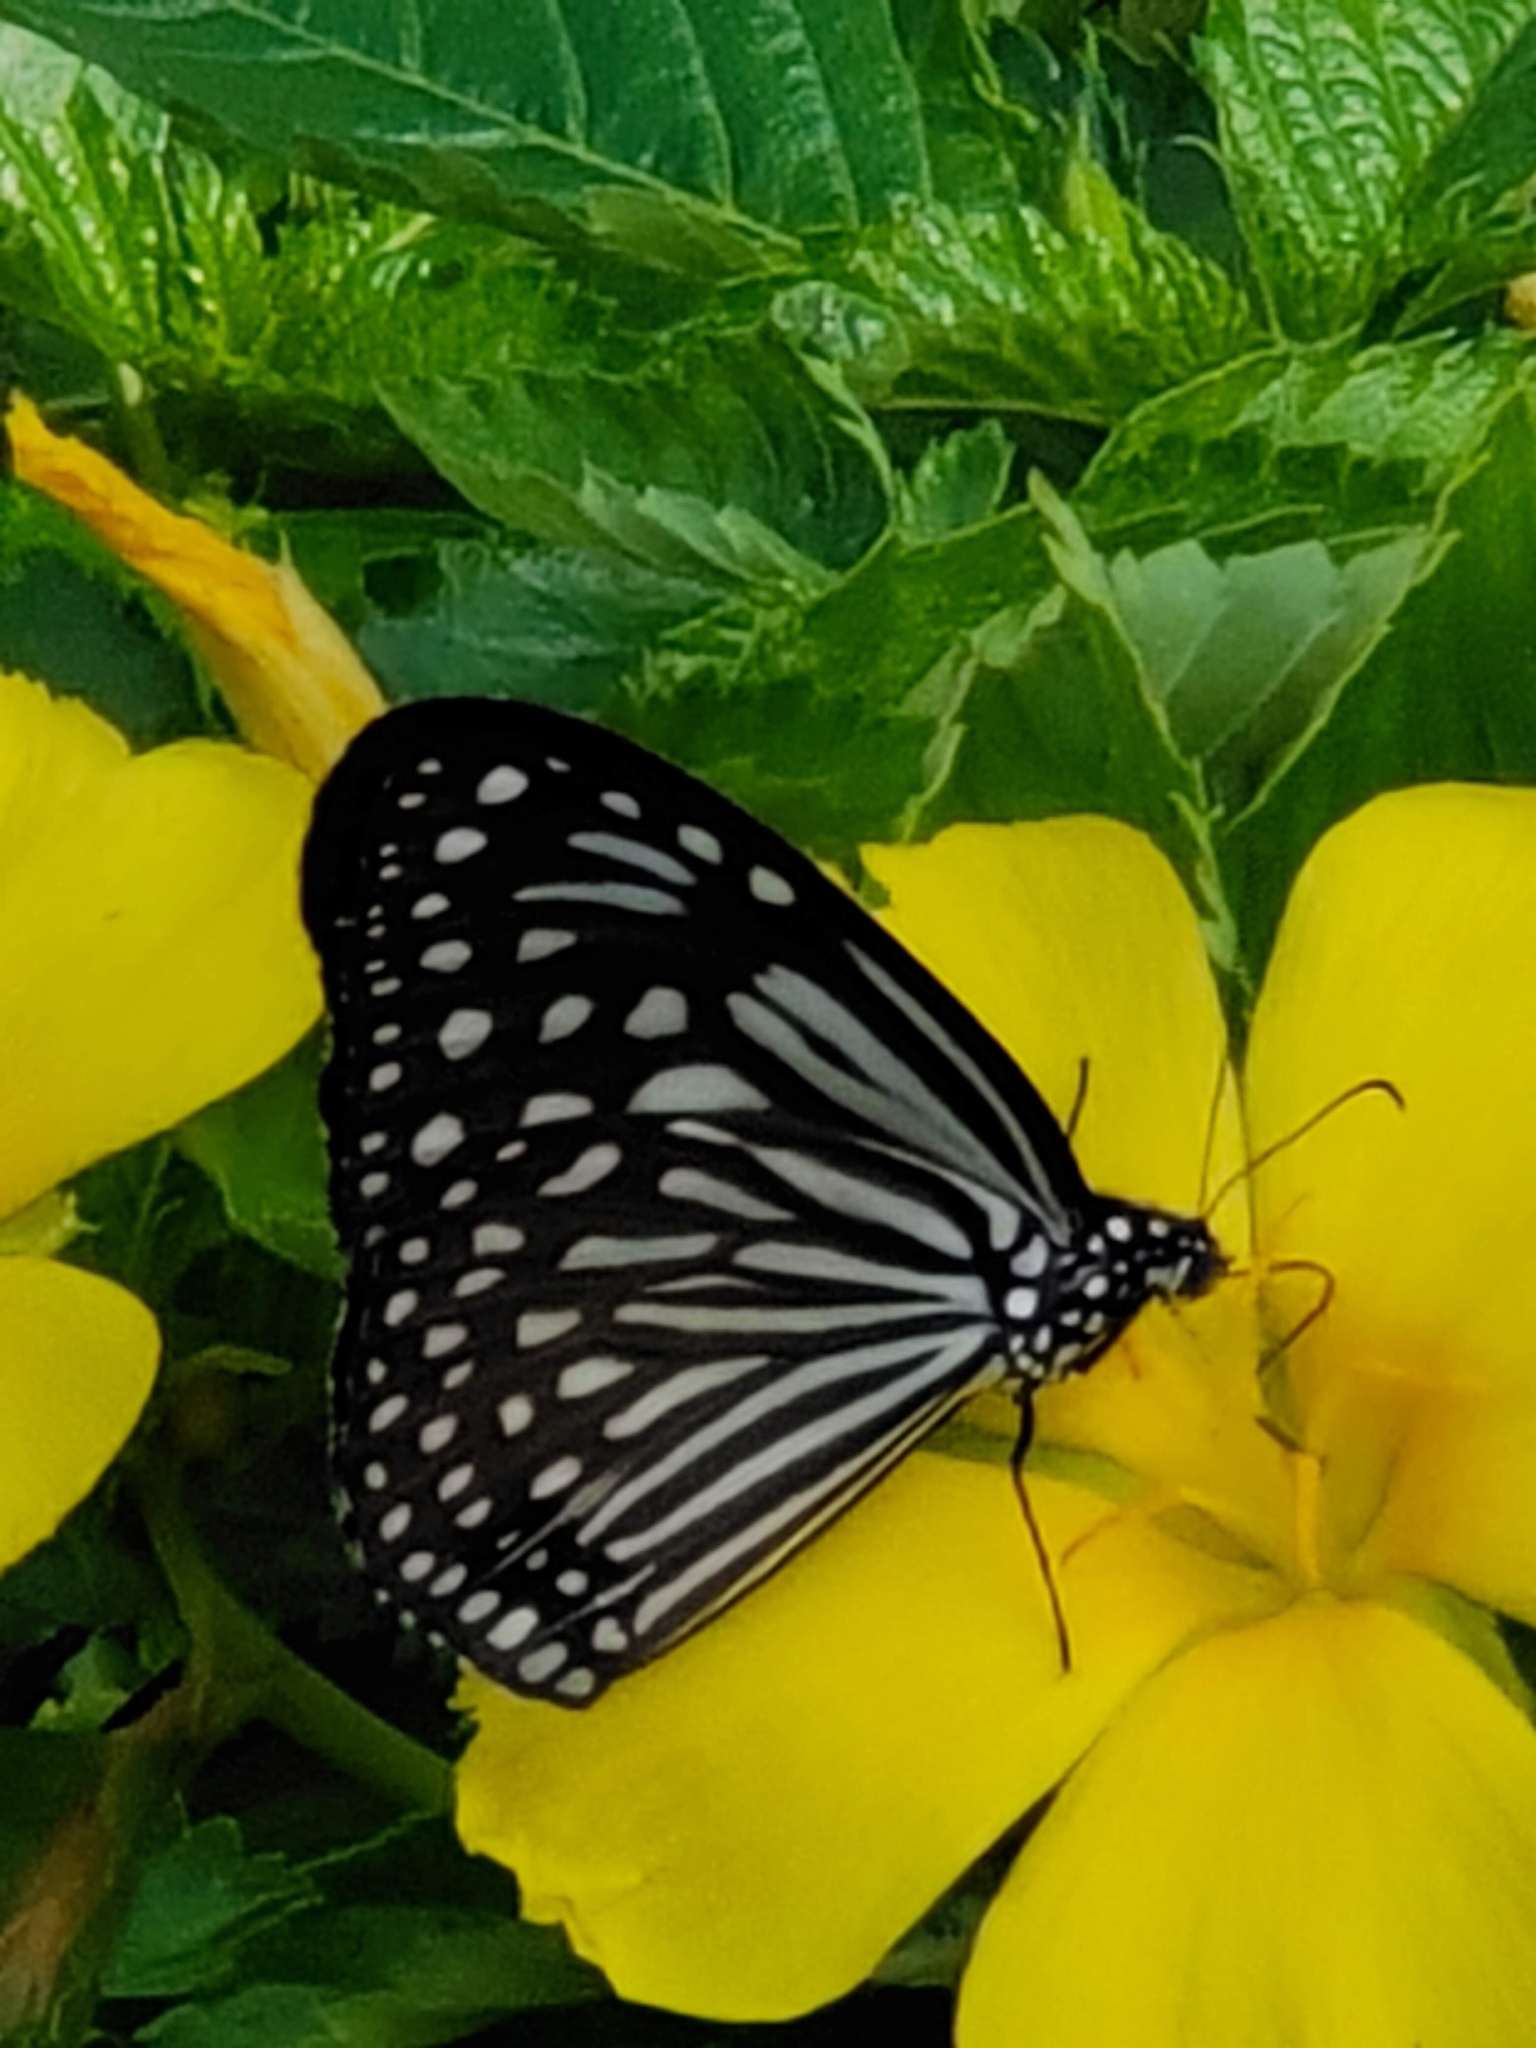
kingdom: Animalia
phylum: Arthropoda
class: Insecta
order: Lepidoptera
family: Nymphalidae
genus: Parantica
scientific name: Parantica agleoides
